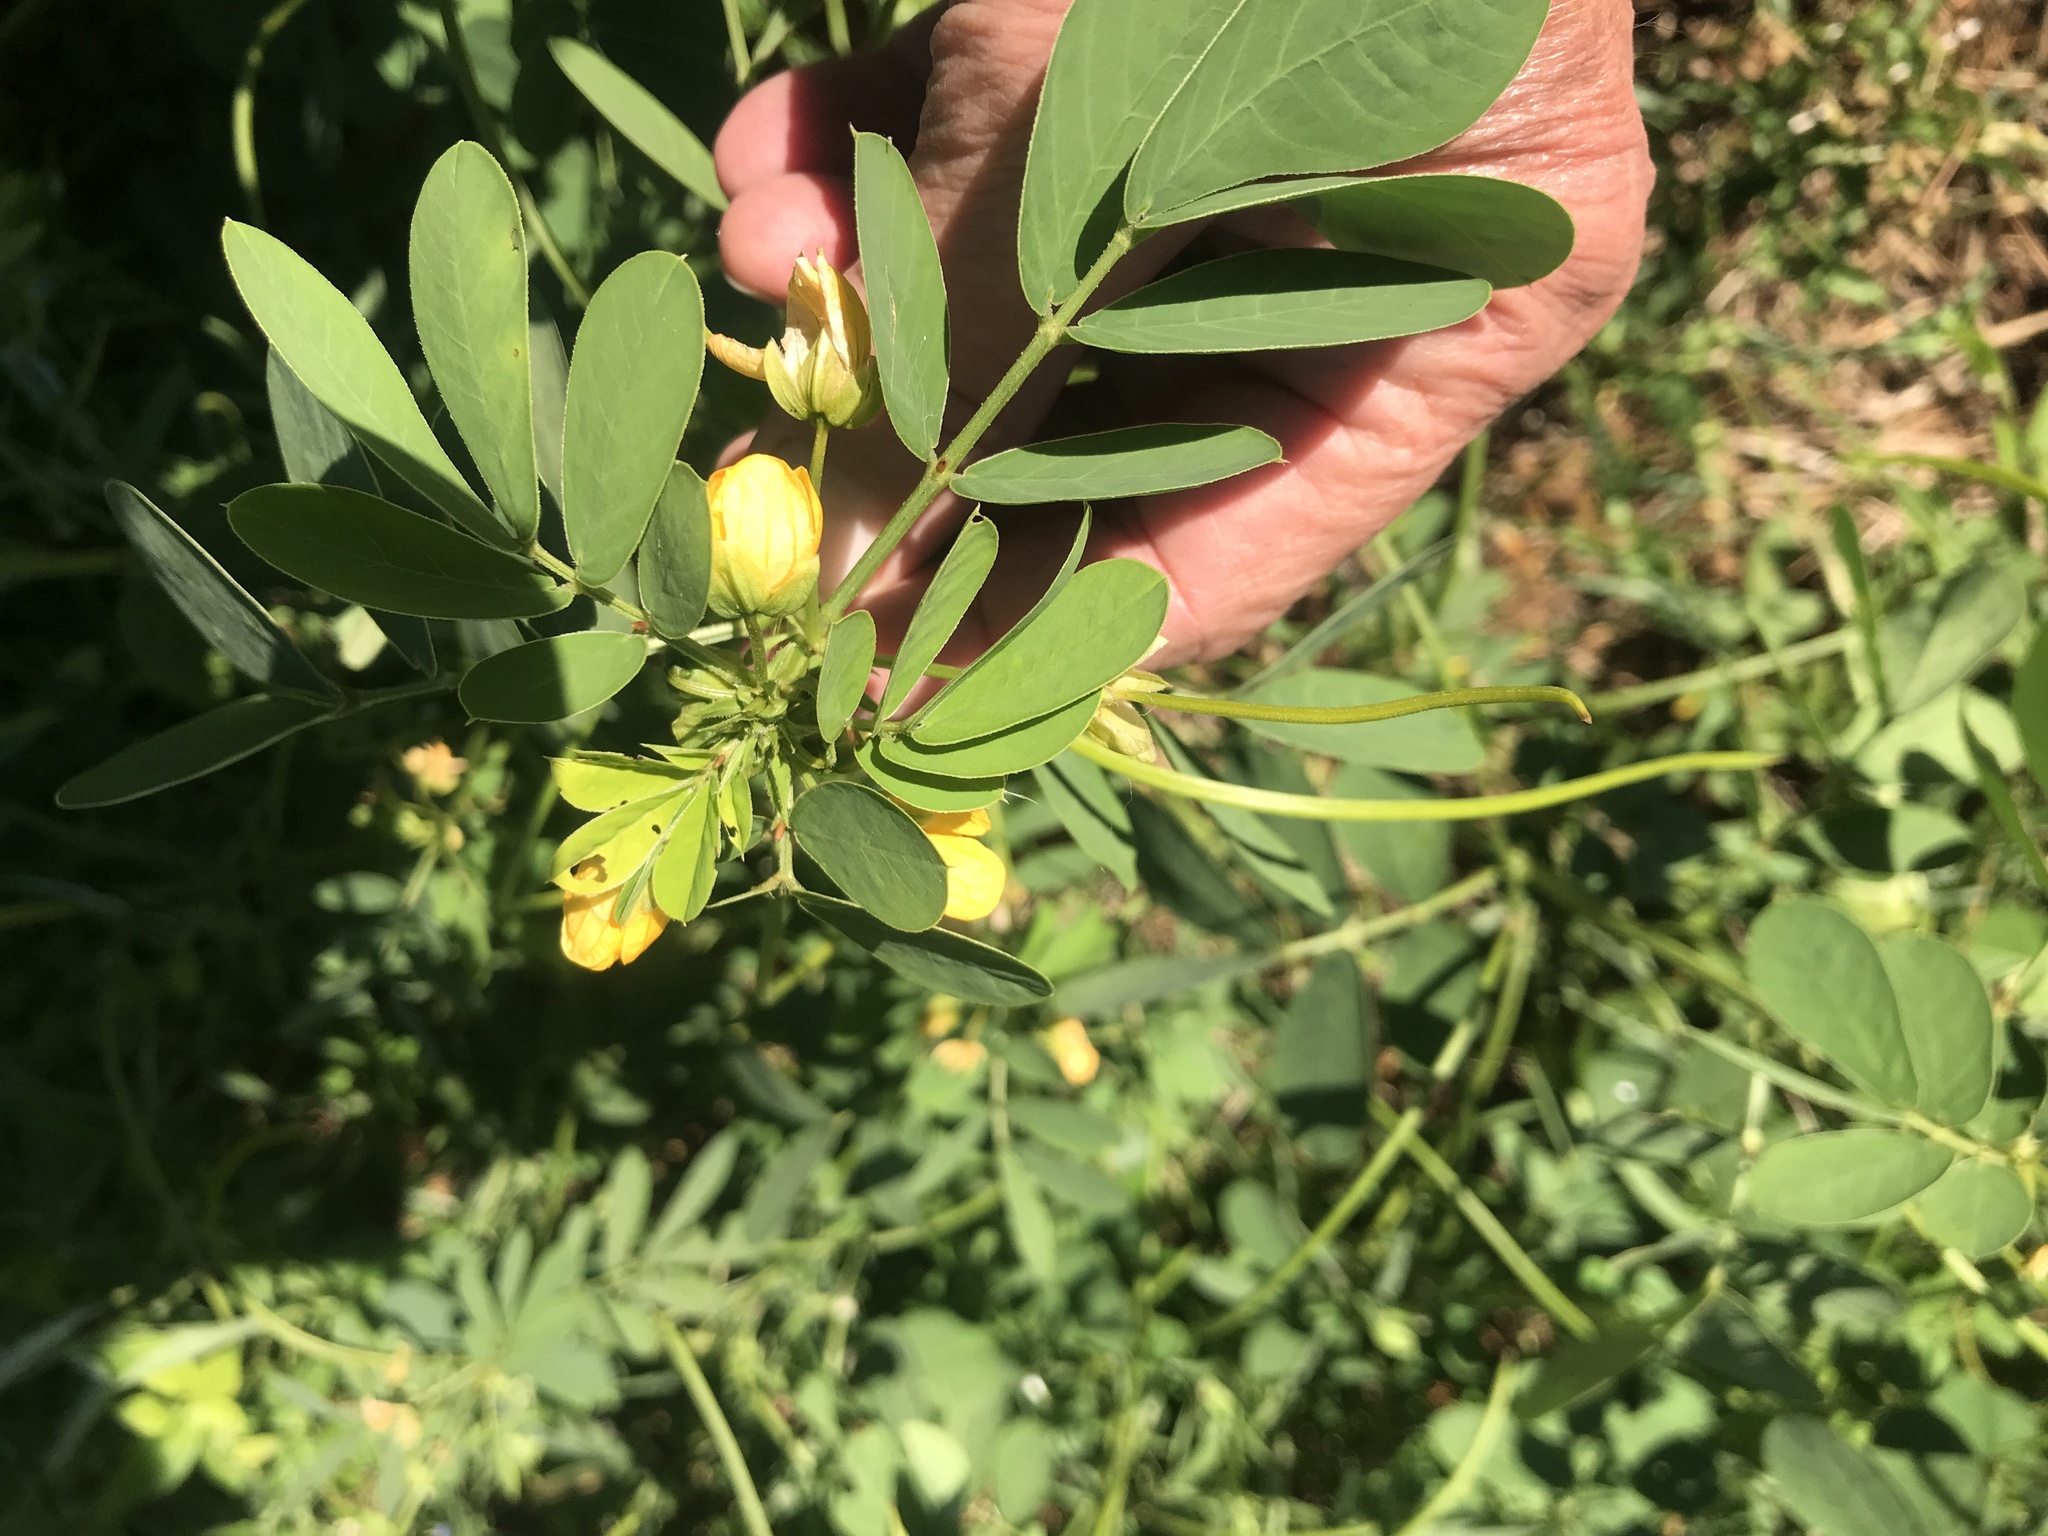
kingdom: Plantae
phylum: Tracheophyta
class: Magnoliopsida
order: Fabales
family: Fabaceae
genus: Senna
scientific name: Senna obtusifolia
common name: Java-bean
